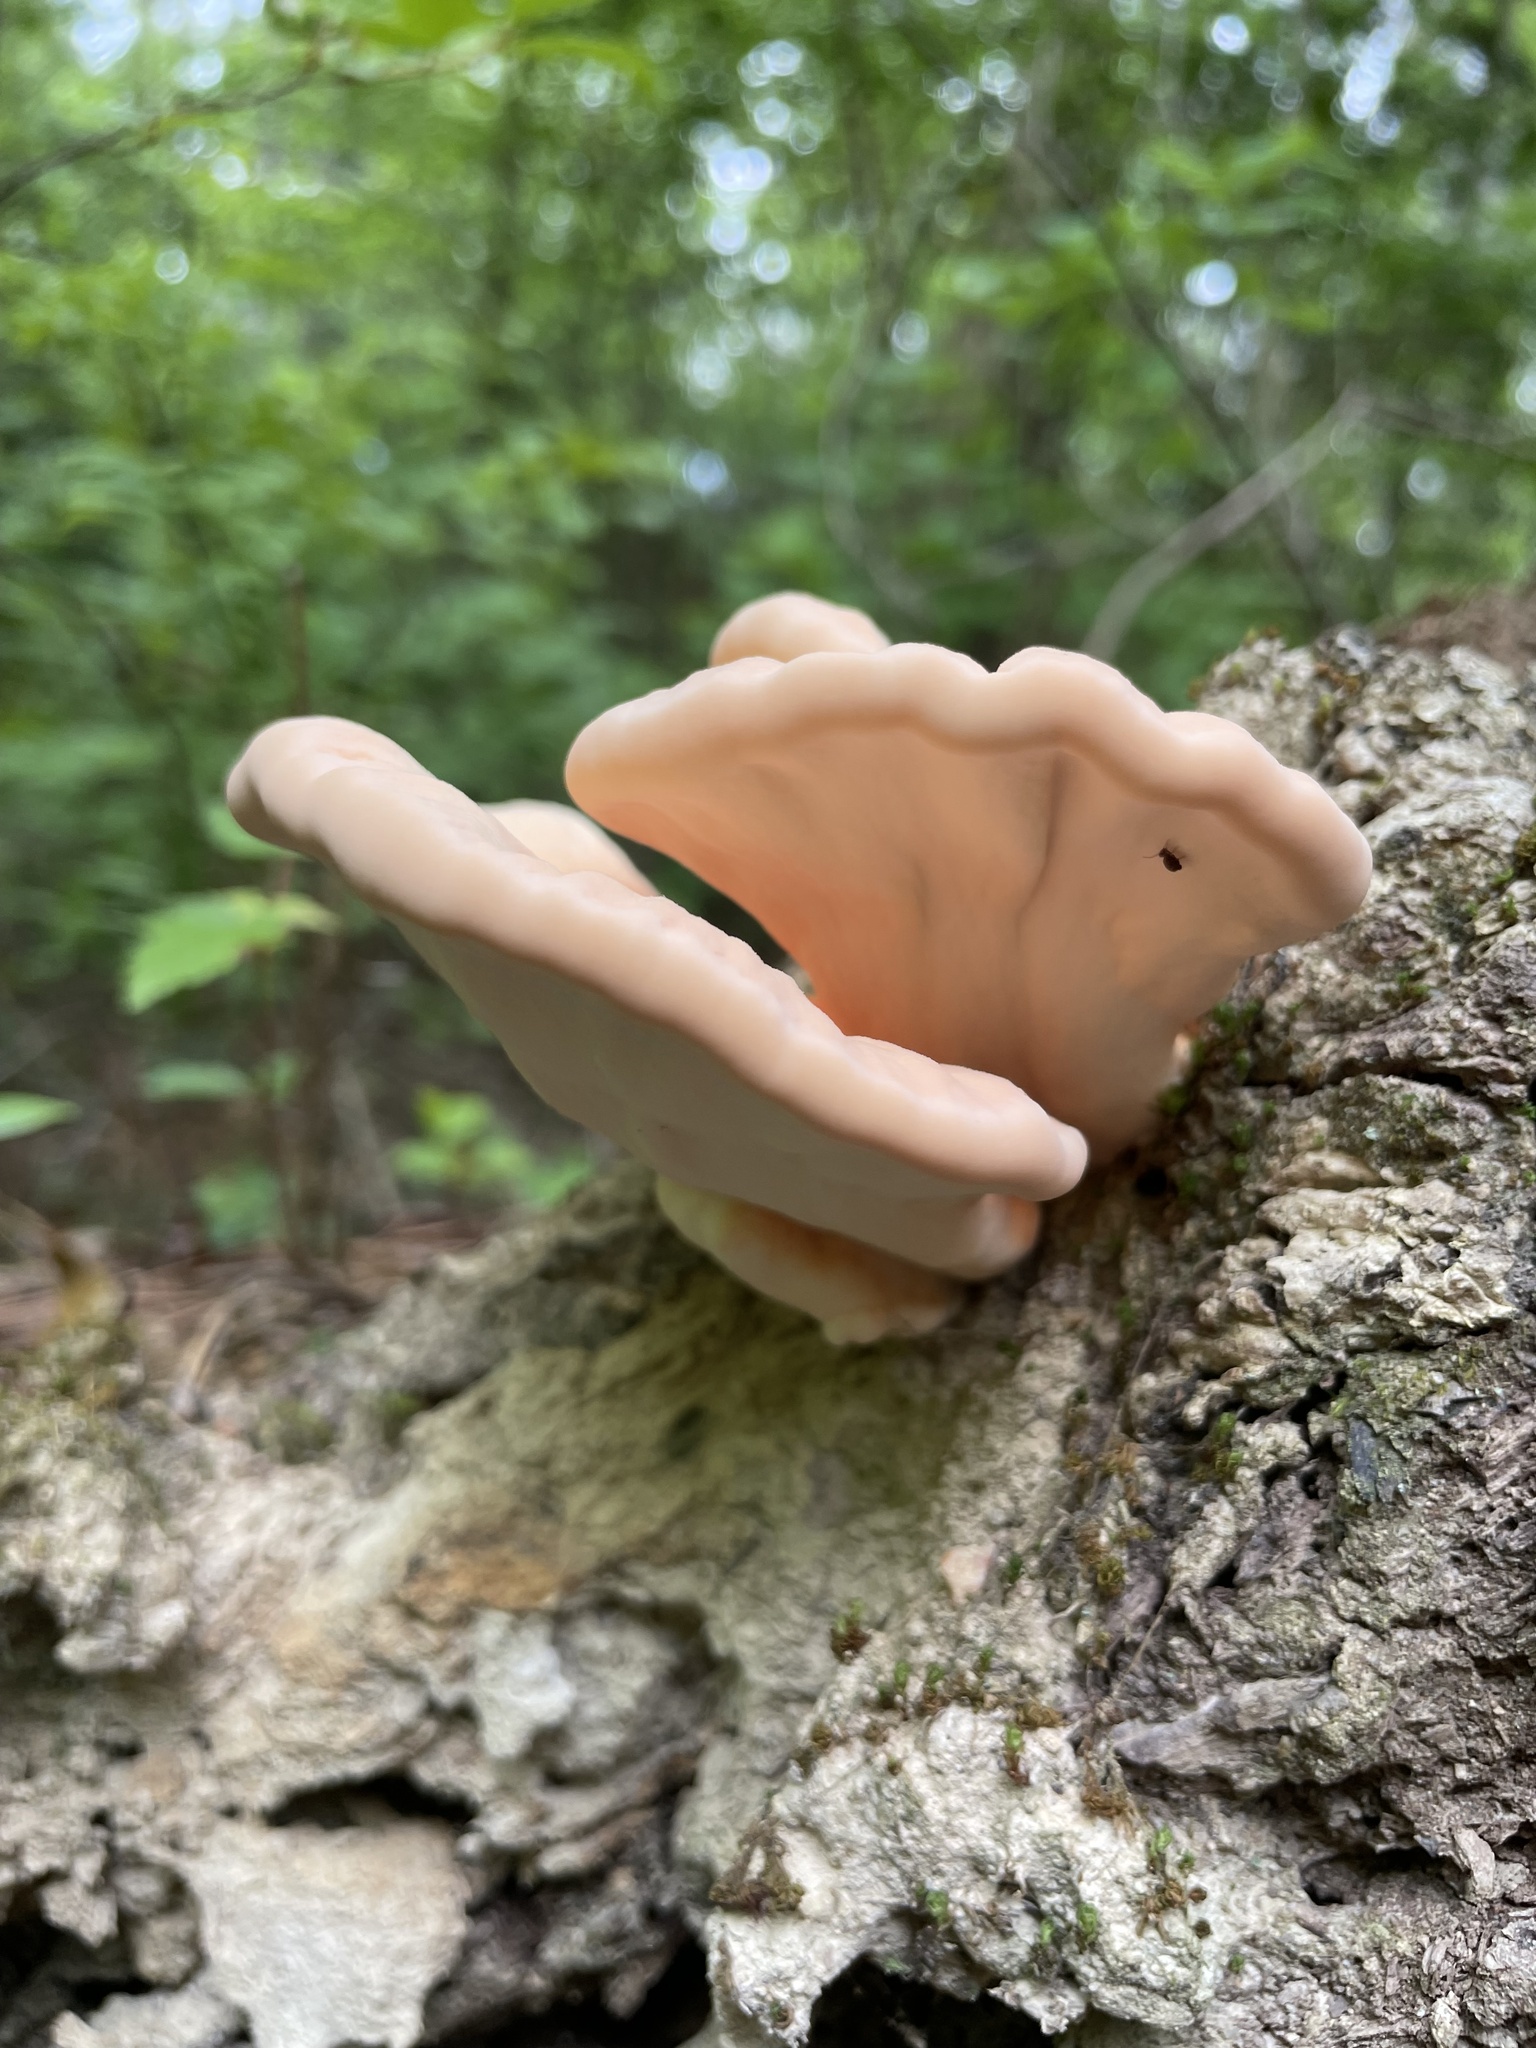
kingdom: Fungi
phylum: Basidiomycota
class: Agaricomycetes
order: Polyporales
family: Laetiporaceae
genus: Laetiporus
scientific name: Laetiporus sulphureus
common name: Chicken of the woods
